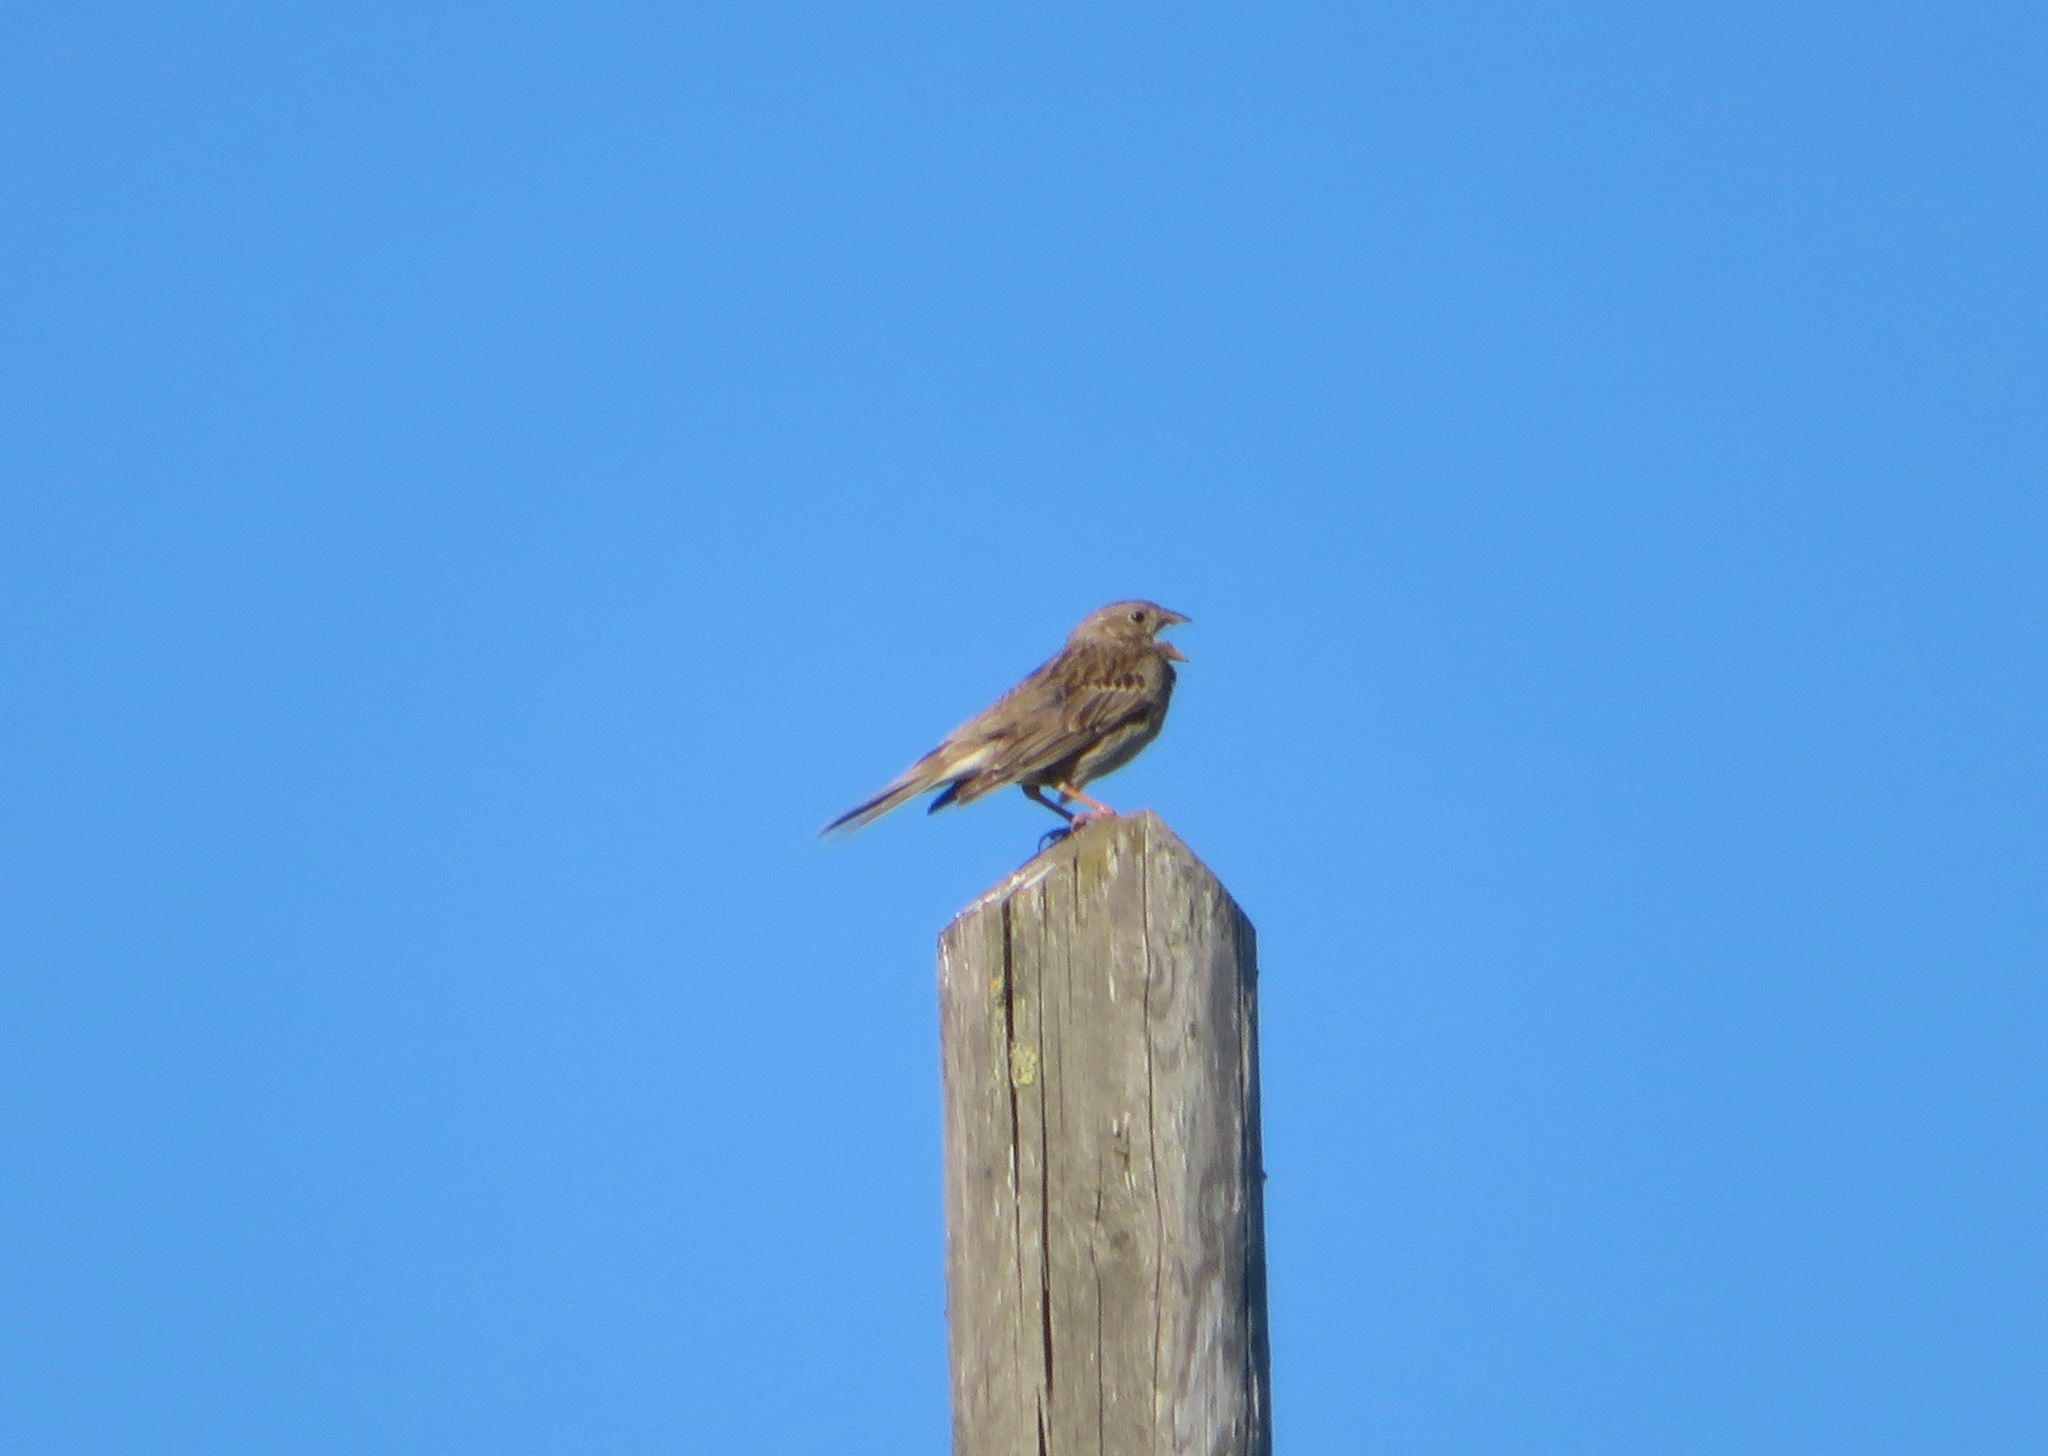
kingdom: Animalia
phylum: Chordata
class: Aves
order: Passeriformes
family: Emberizidae
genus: Emberiza
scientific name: Emberiza calandra
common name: Corn bunting
